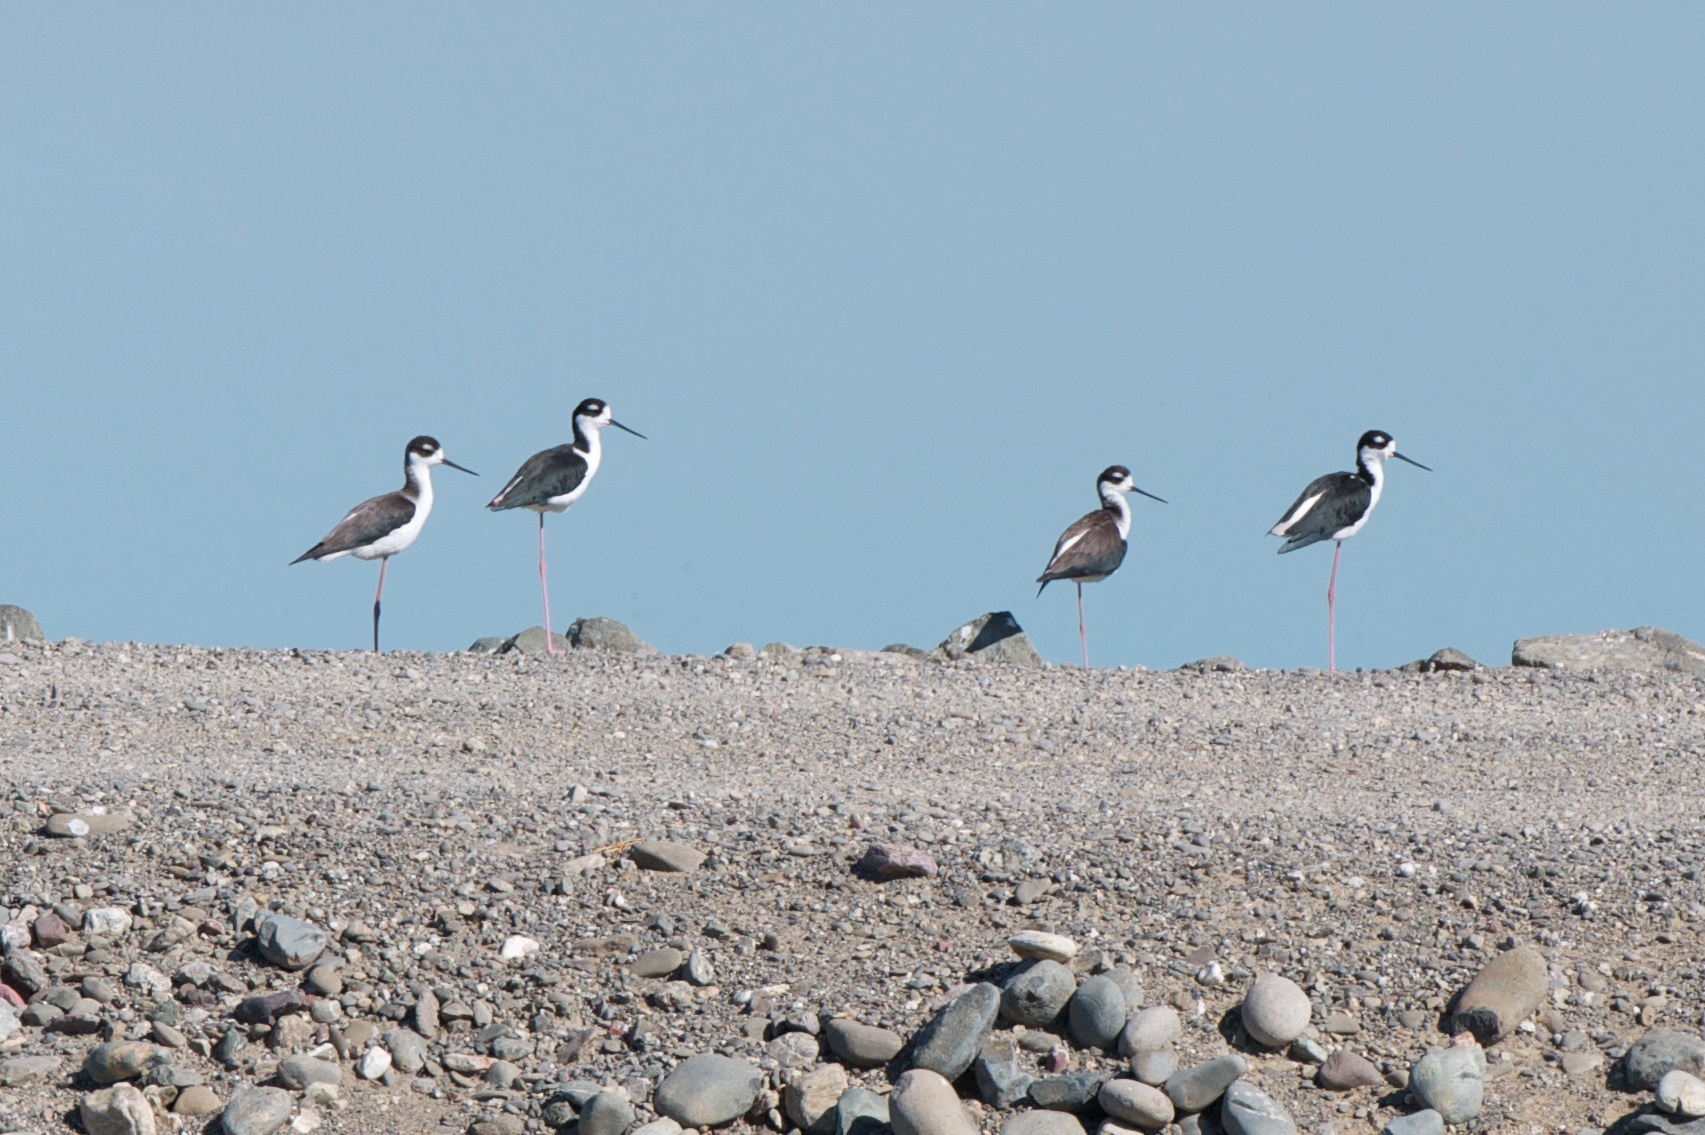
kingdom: Animalia
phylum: Chordata
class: Aves
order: Charadriiformes
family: Recurvirostridae
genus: Himantopus
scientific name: Himantopus mexicanus
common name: Black-necked stilt
